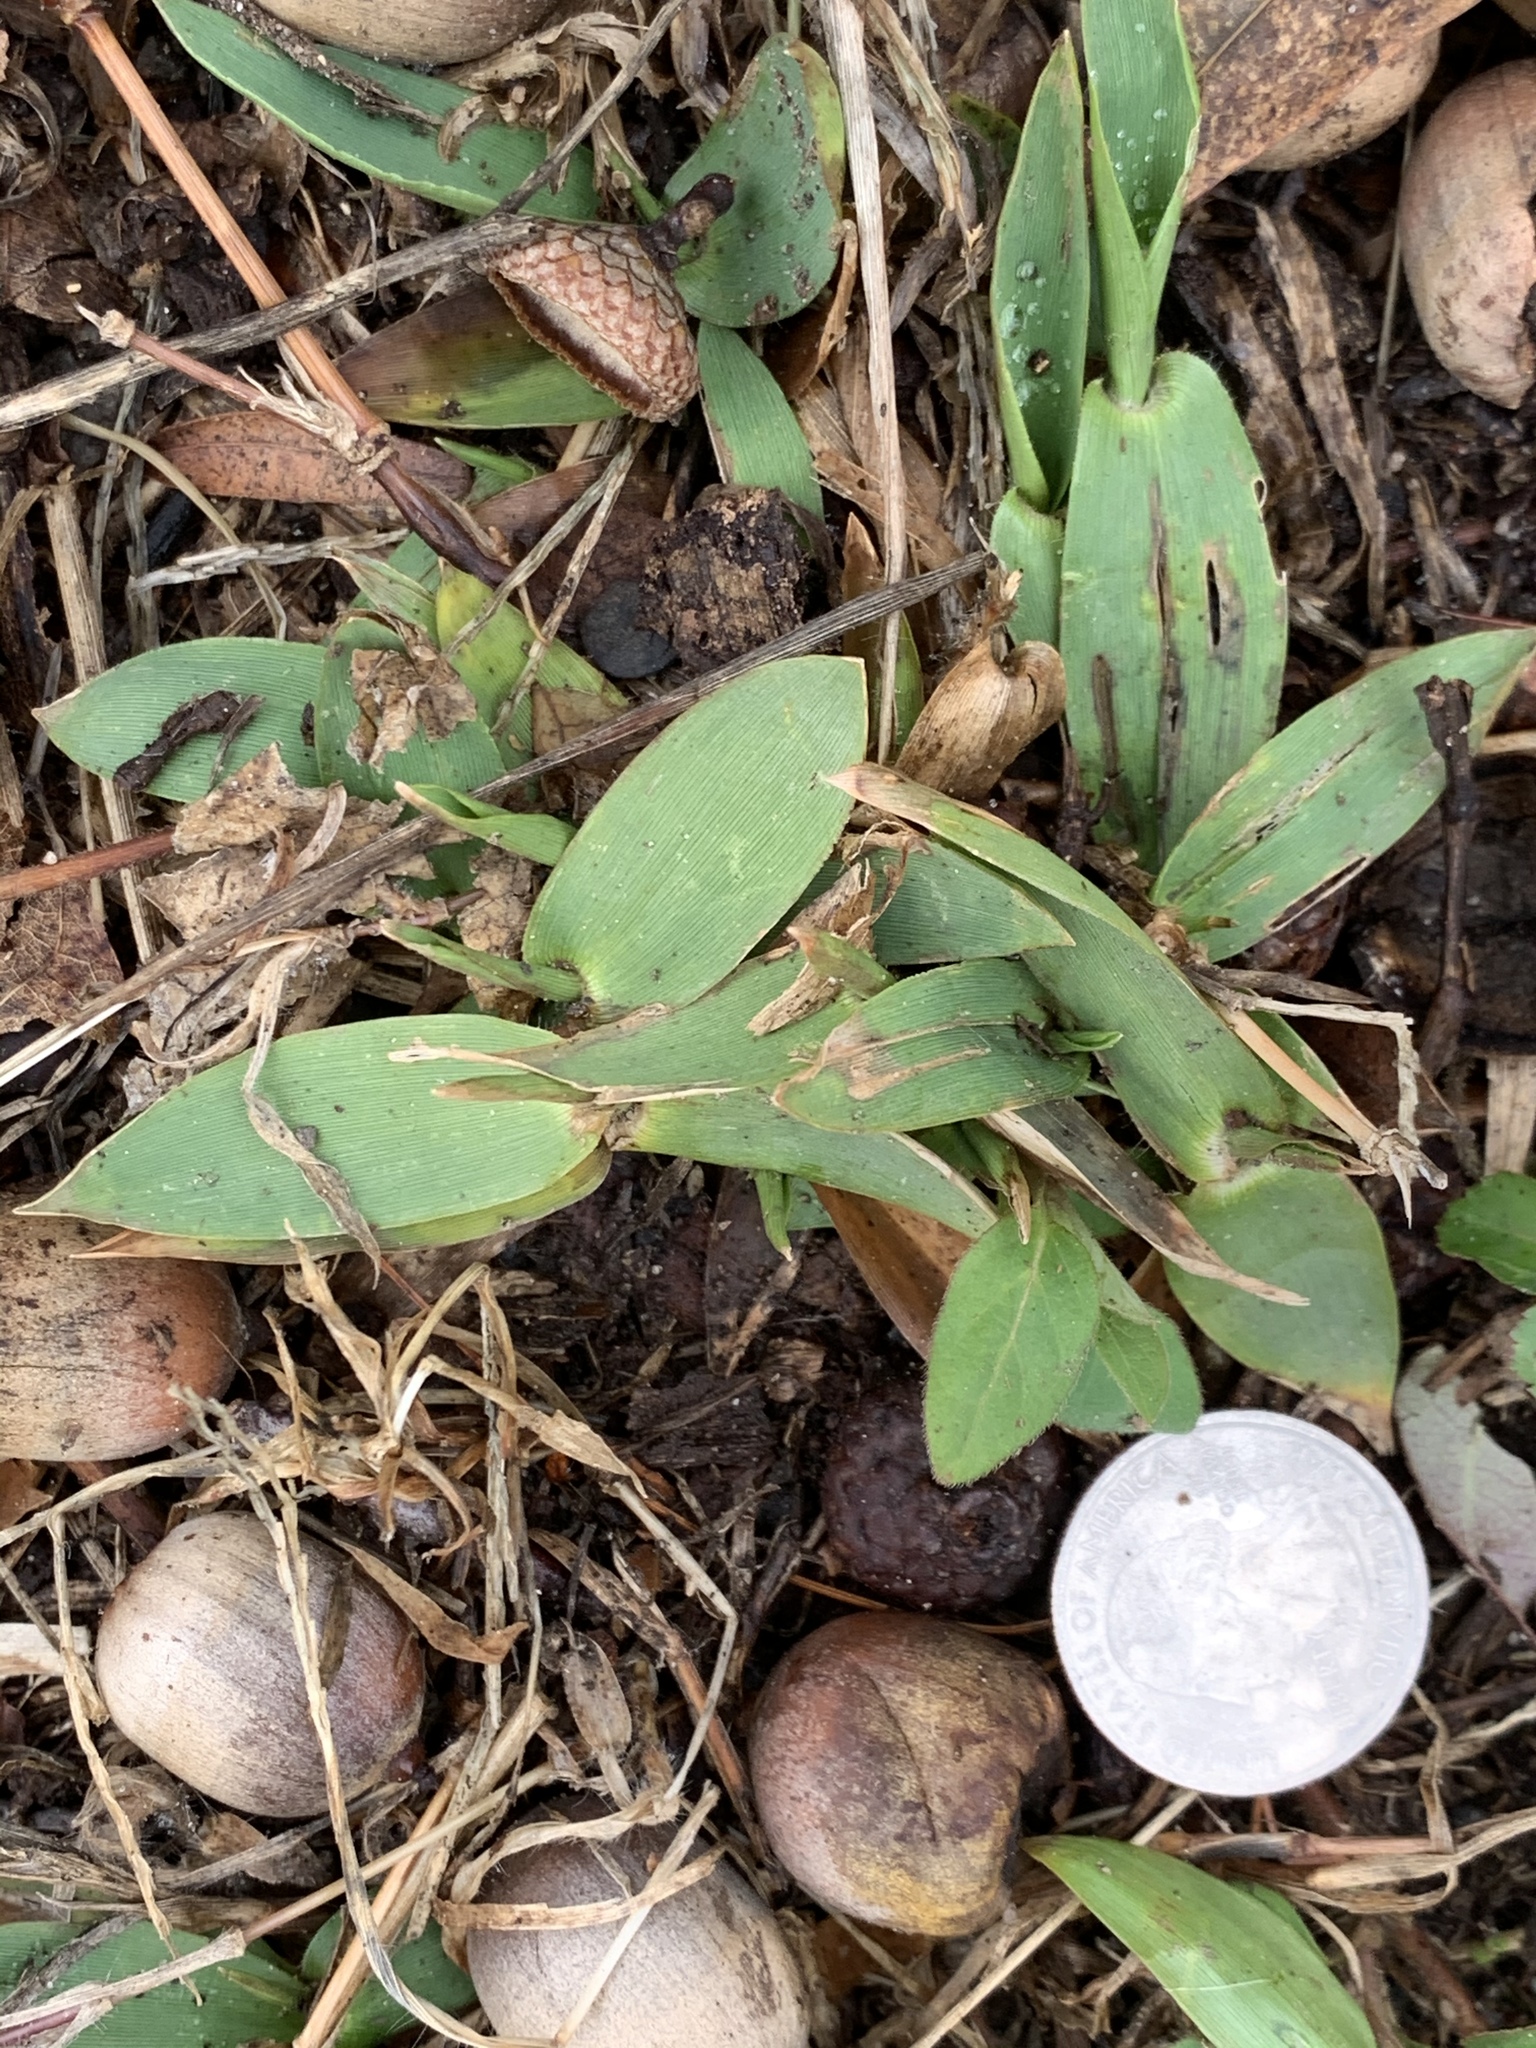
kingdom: Plantae
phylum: Tracheophyta
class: Liliopsida
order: Poales
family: Poaceae
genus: Dichanthelium
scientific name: Dichanthelium clandestinum
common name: Deer-tongue grass
